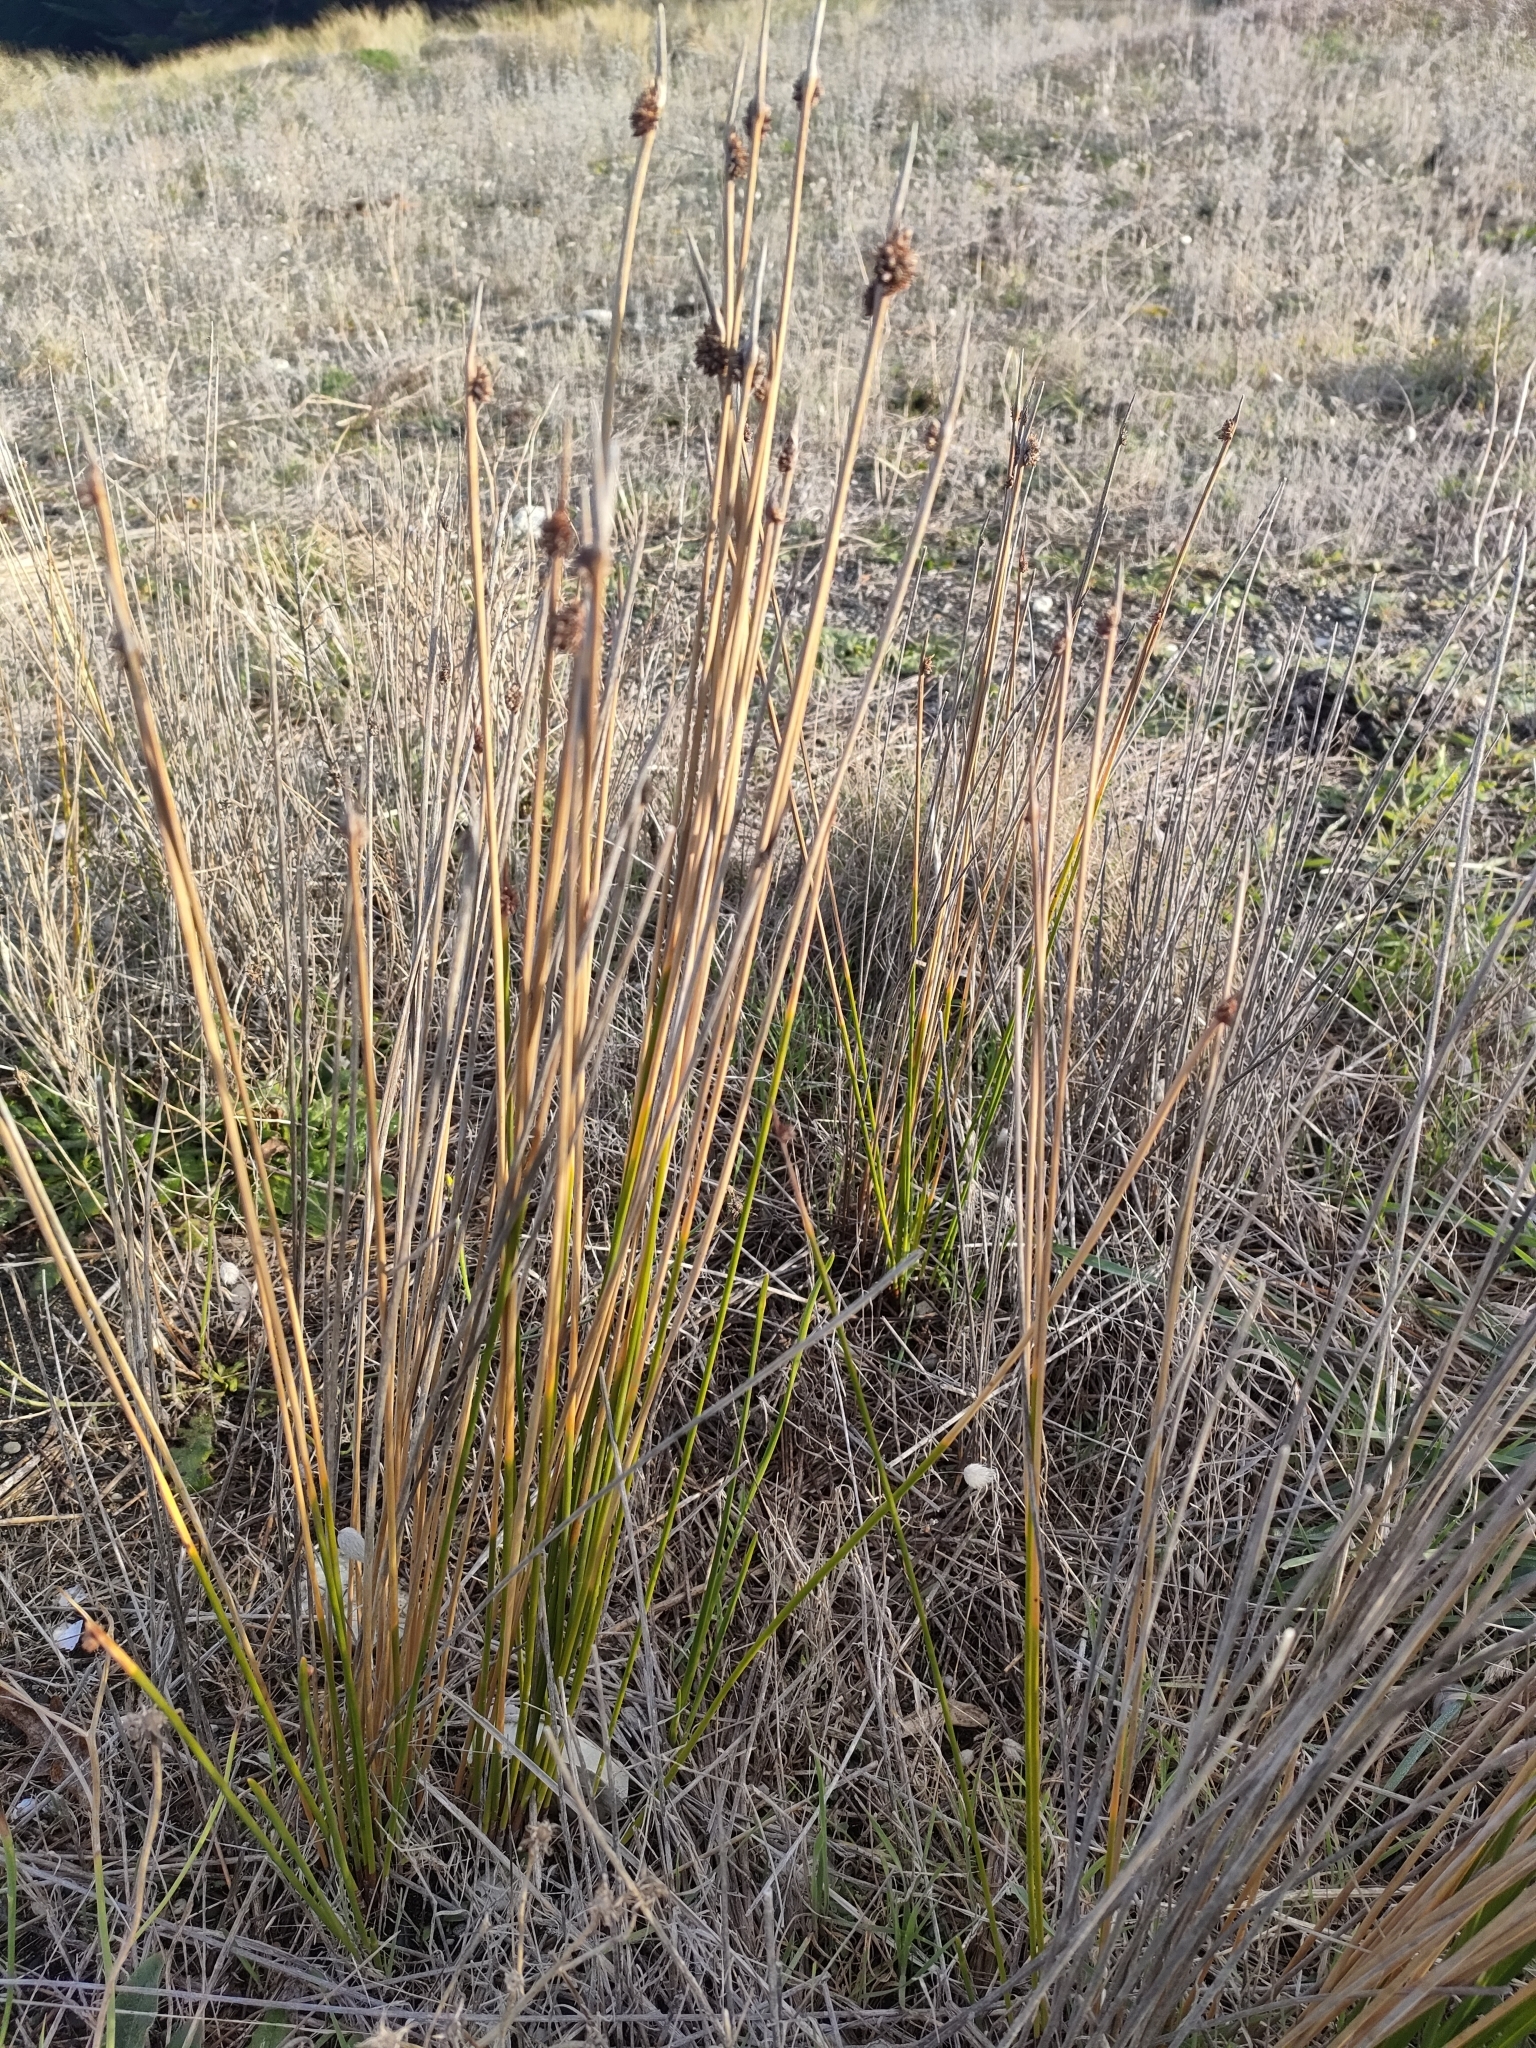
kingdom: Plantae
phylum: Tracheophyta
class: Liliopsida
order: Poales
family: Cyperaceae
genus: Ficinia
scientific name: Ficinia nodosa
